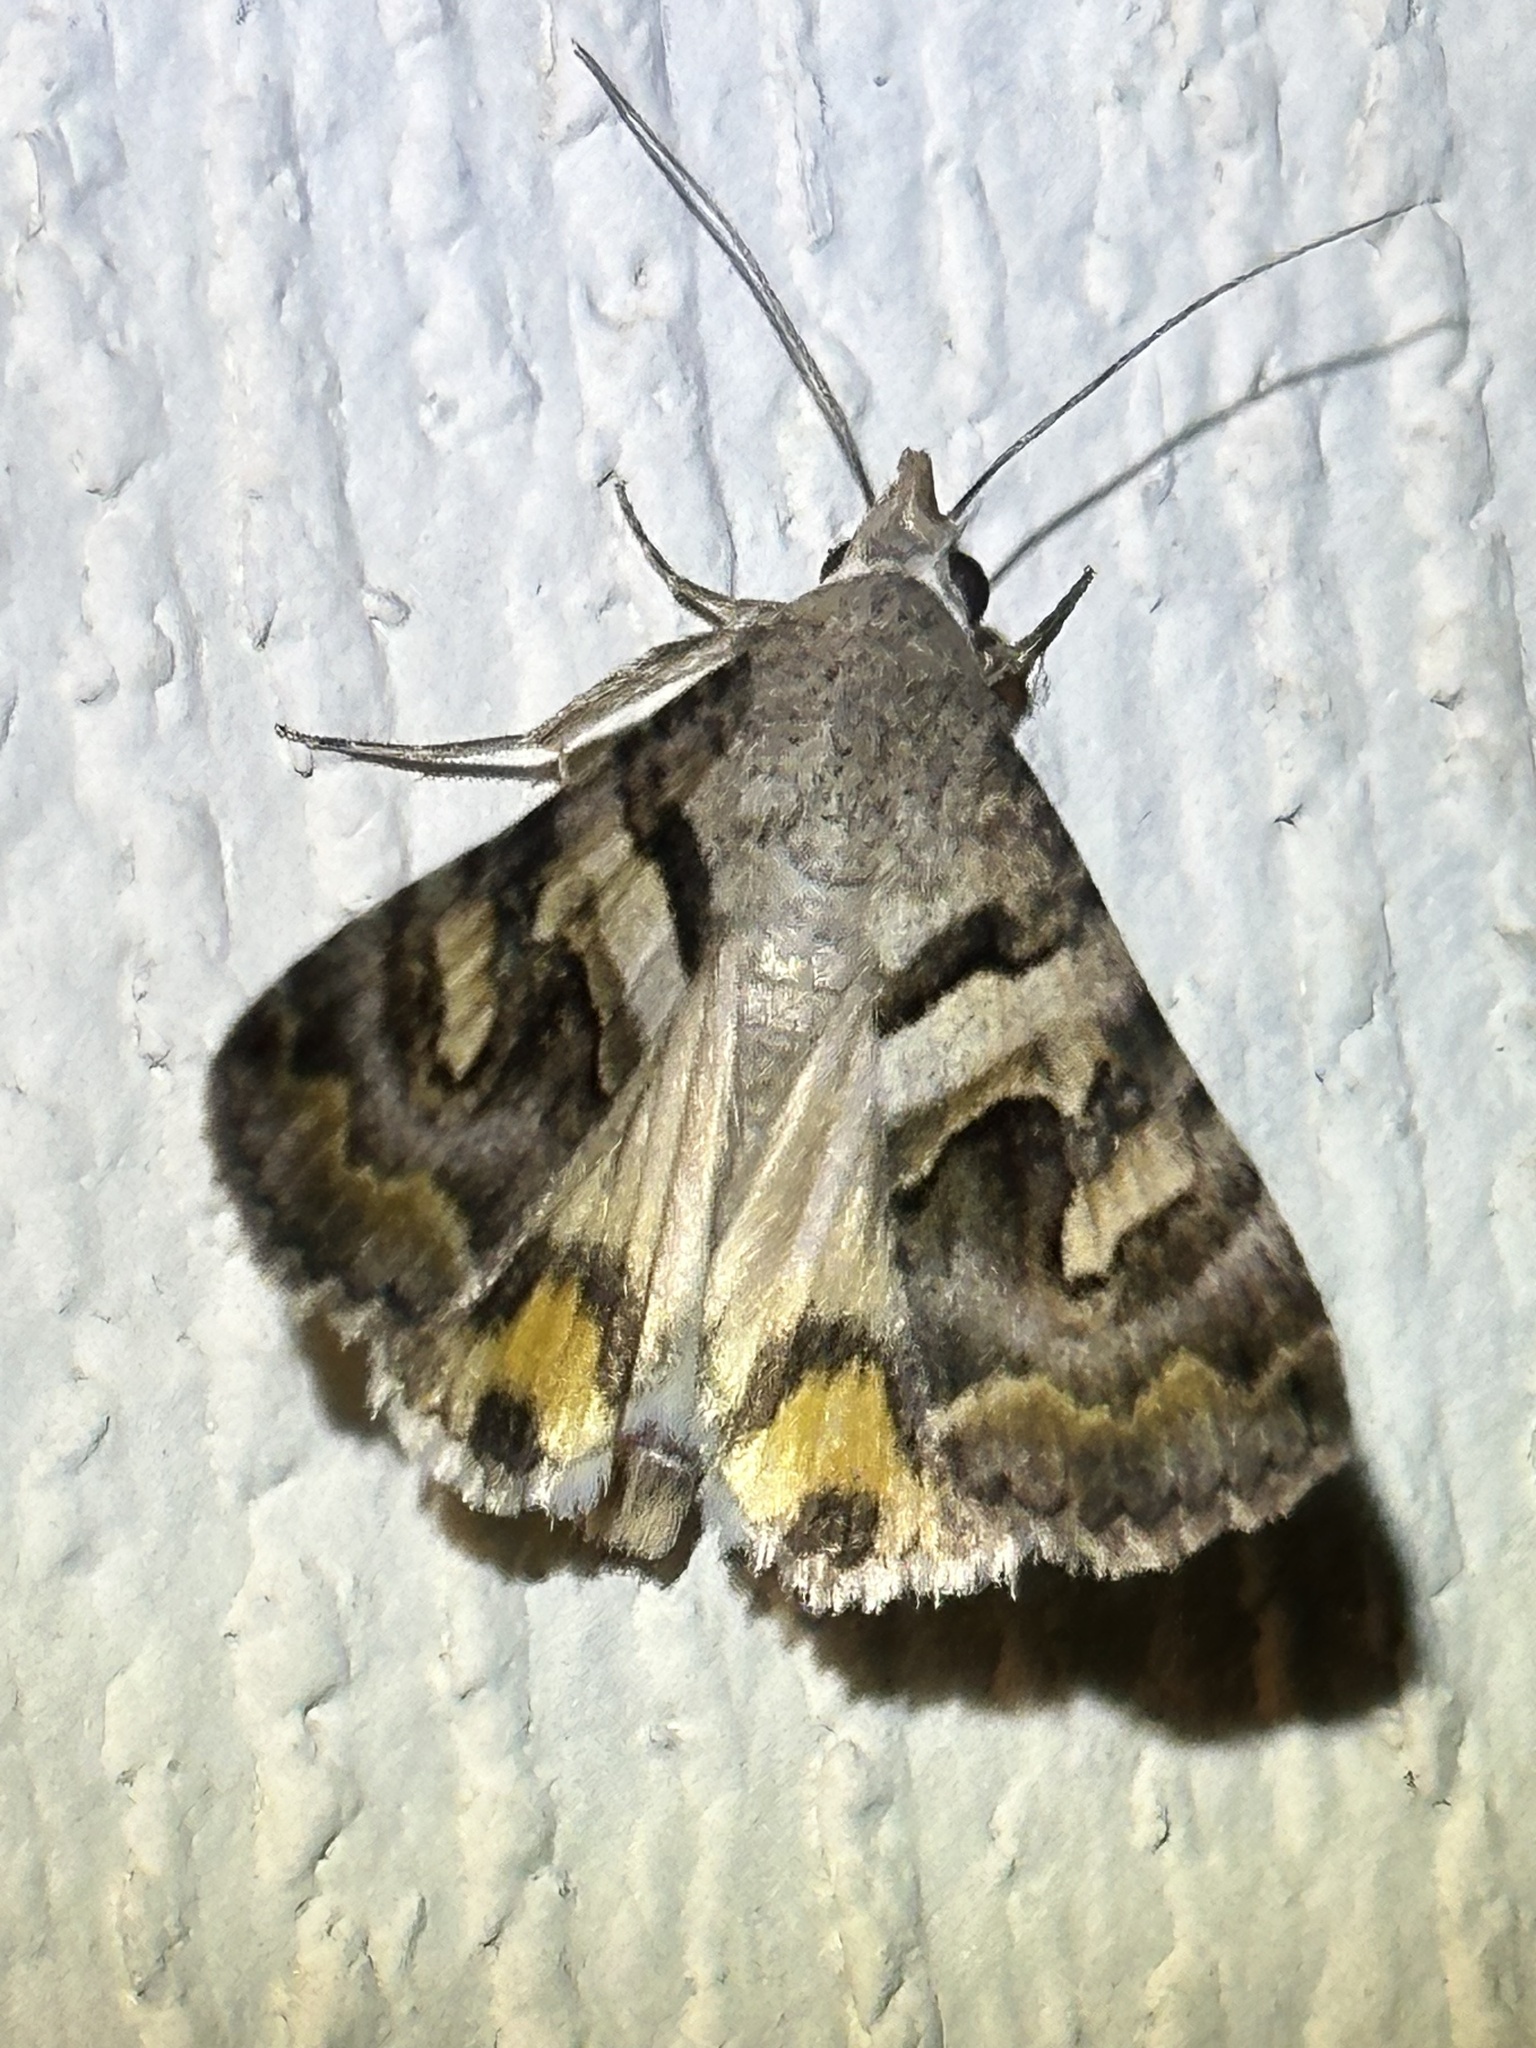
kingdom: Animalia
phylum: Arthropoda
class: Insecta
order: Lepidoptera
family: Erebidae
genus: Bulia
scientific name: Bulia deducta
